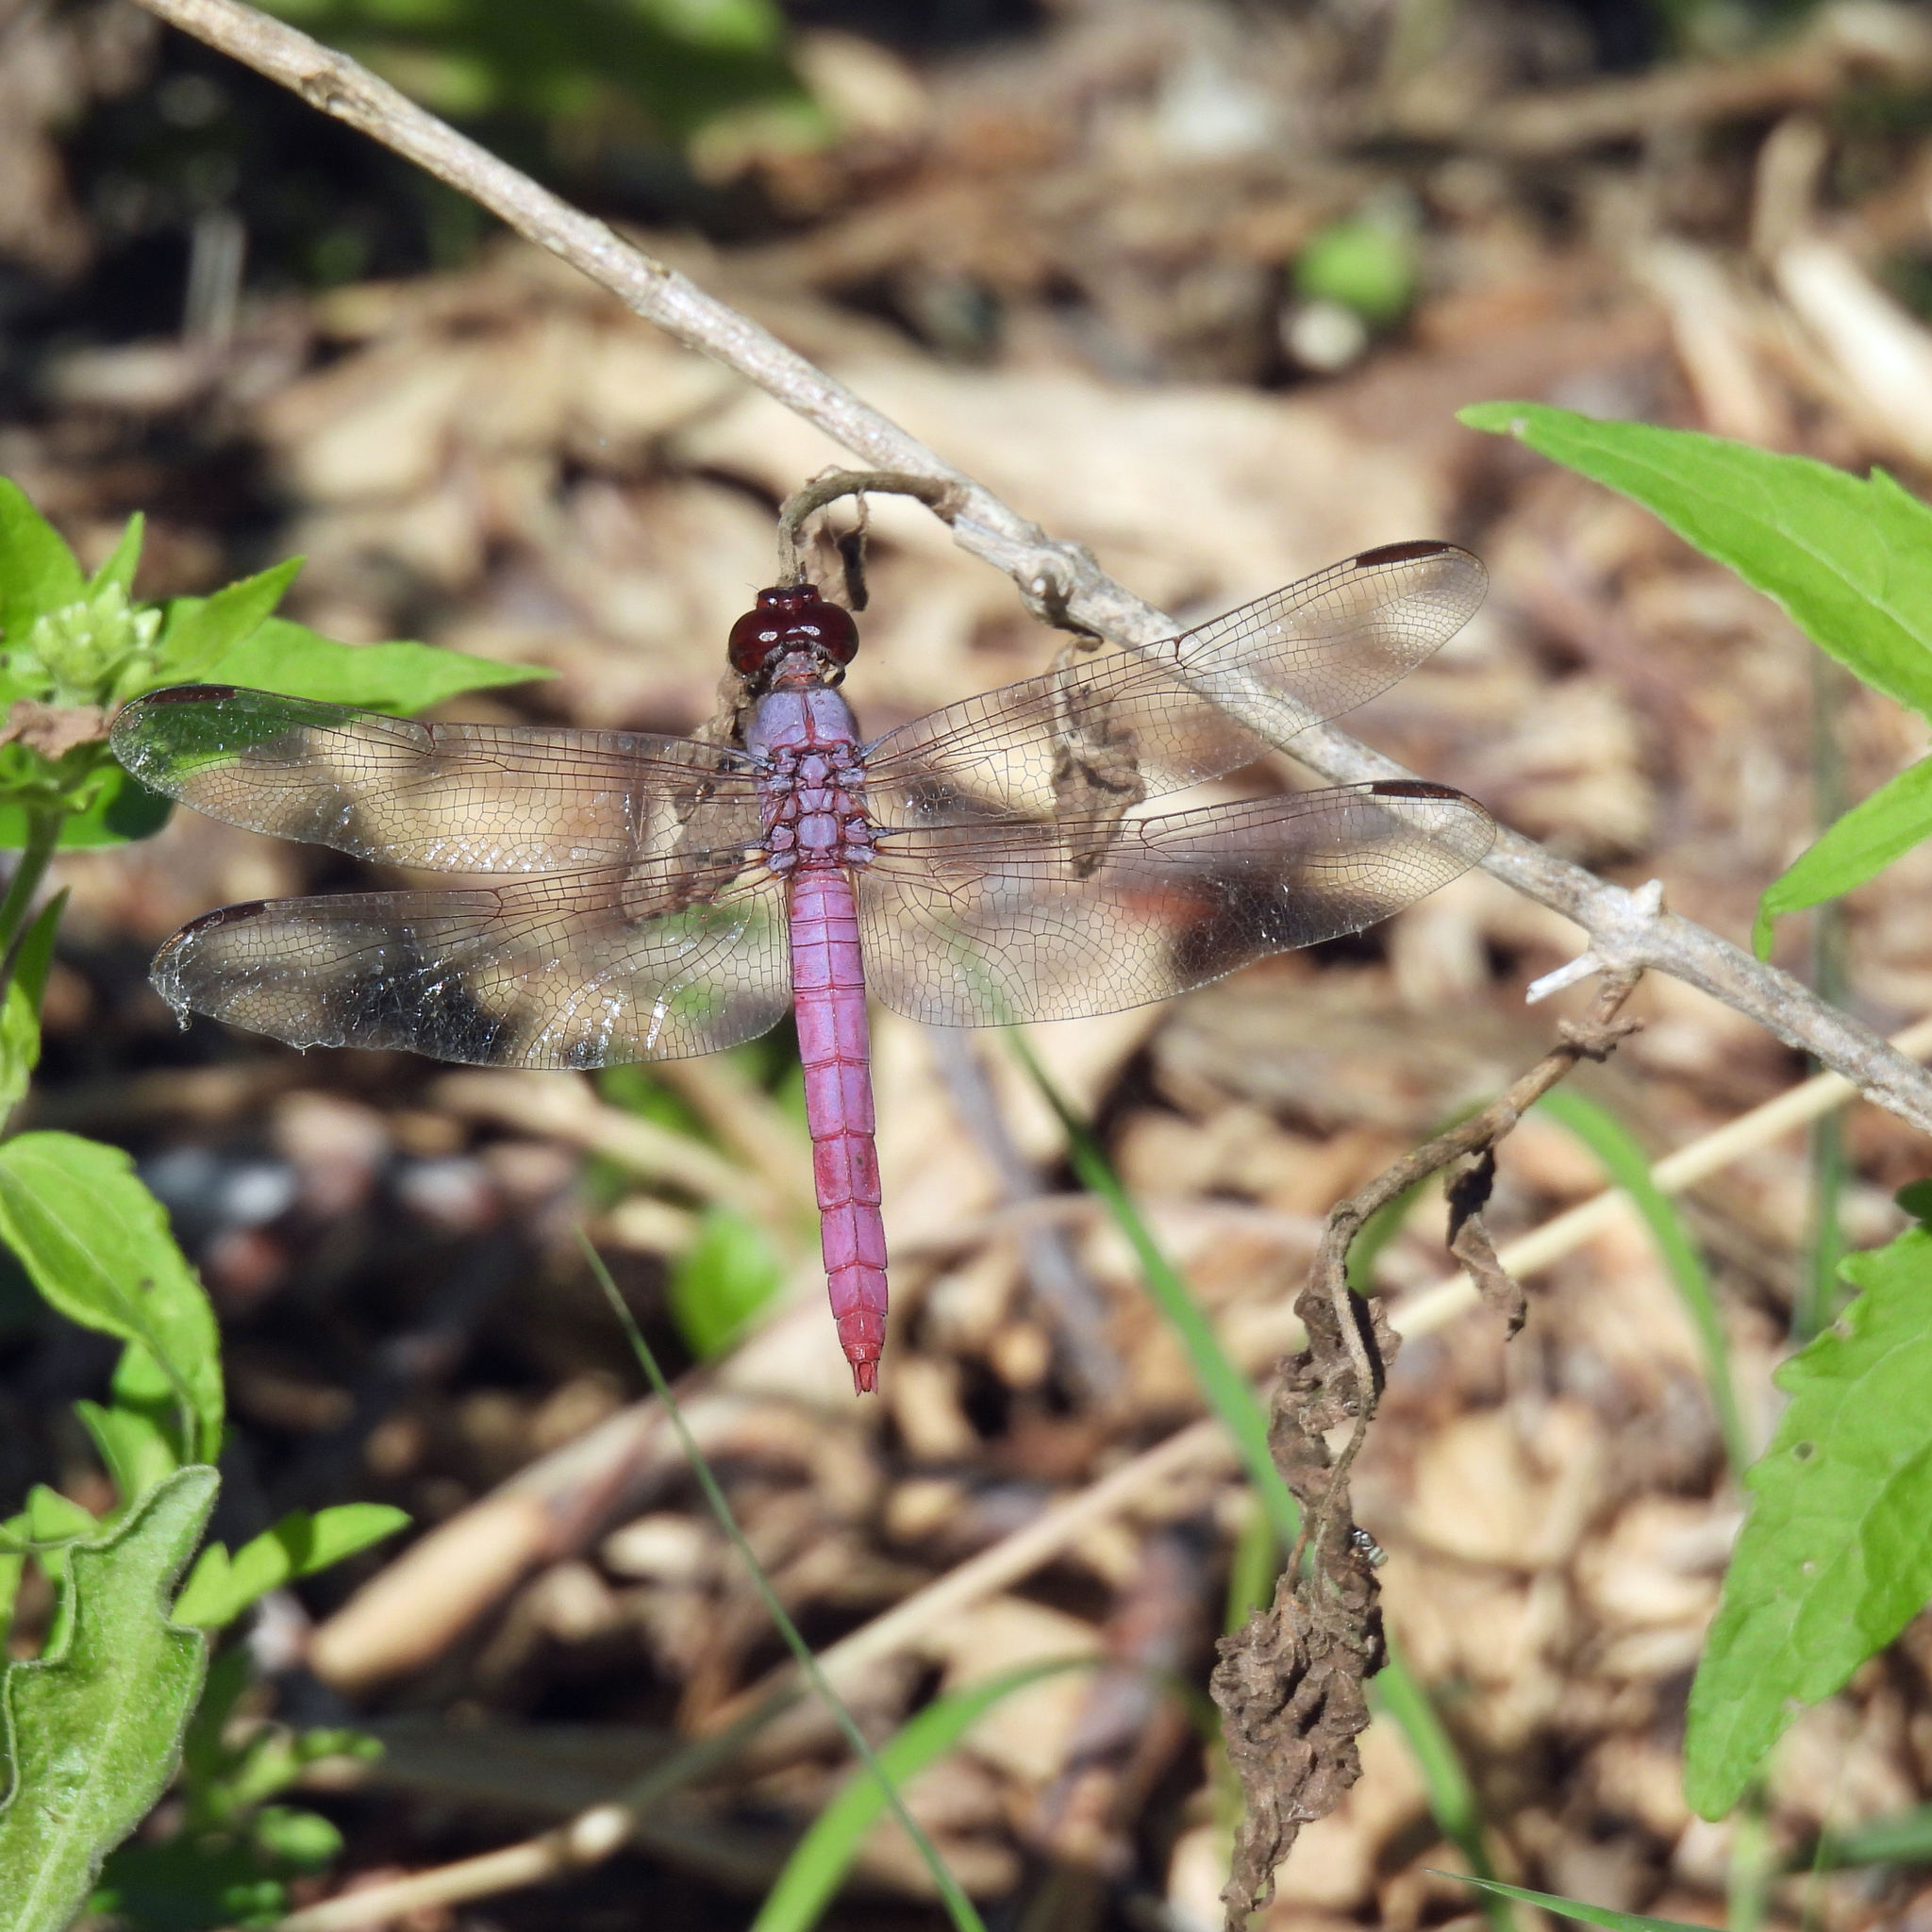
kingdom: Animalia
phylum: Arthropoda
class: Insecta
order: Odonata
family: Libellulidae
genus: Orthemis
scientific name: Orthemis ferruginea
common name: Roseate skimmer
